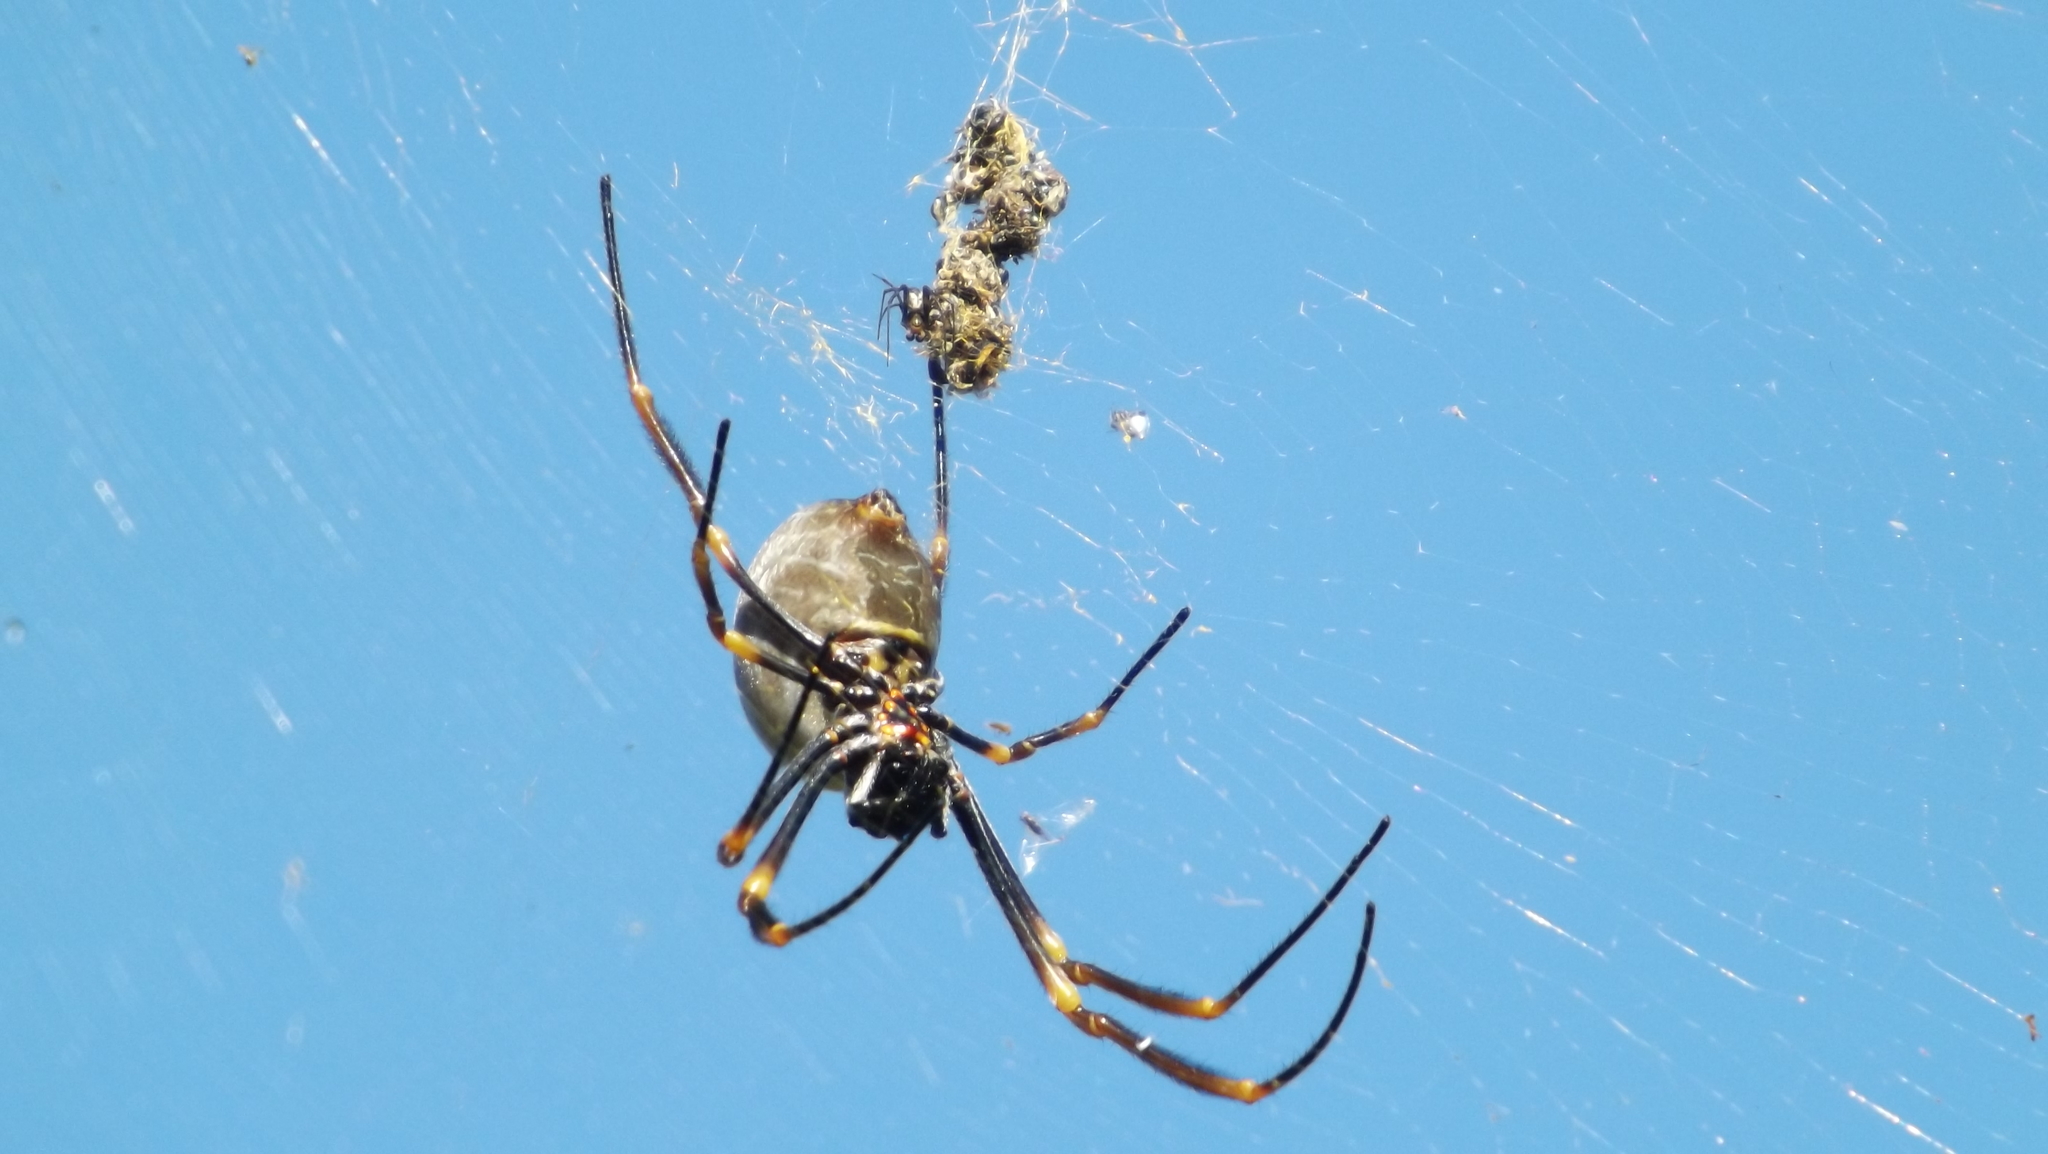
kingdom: Animalia
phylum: Arthropoda
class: Arachnida
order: Araneae
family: Araneidae
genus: Trichonephila
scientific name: Trichonephila plumipes
